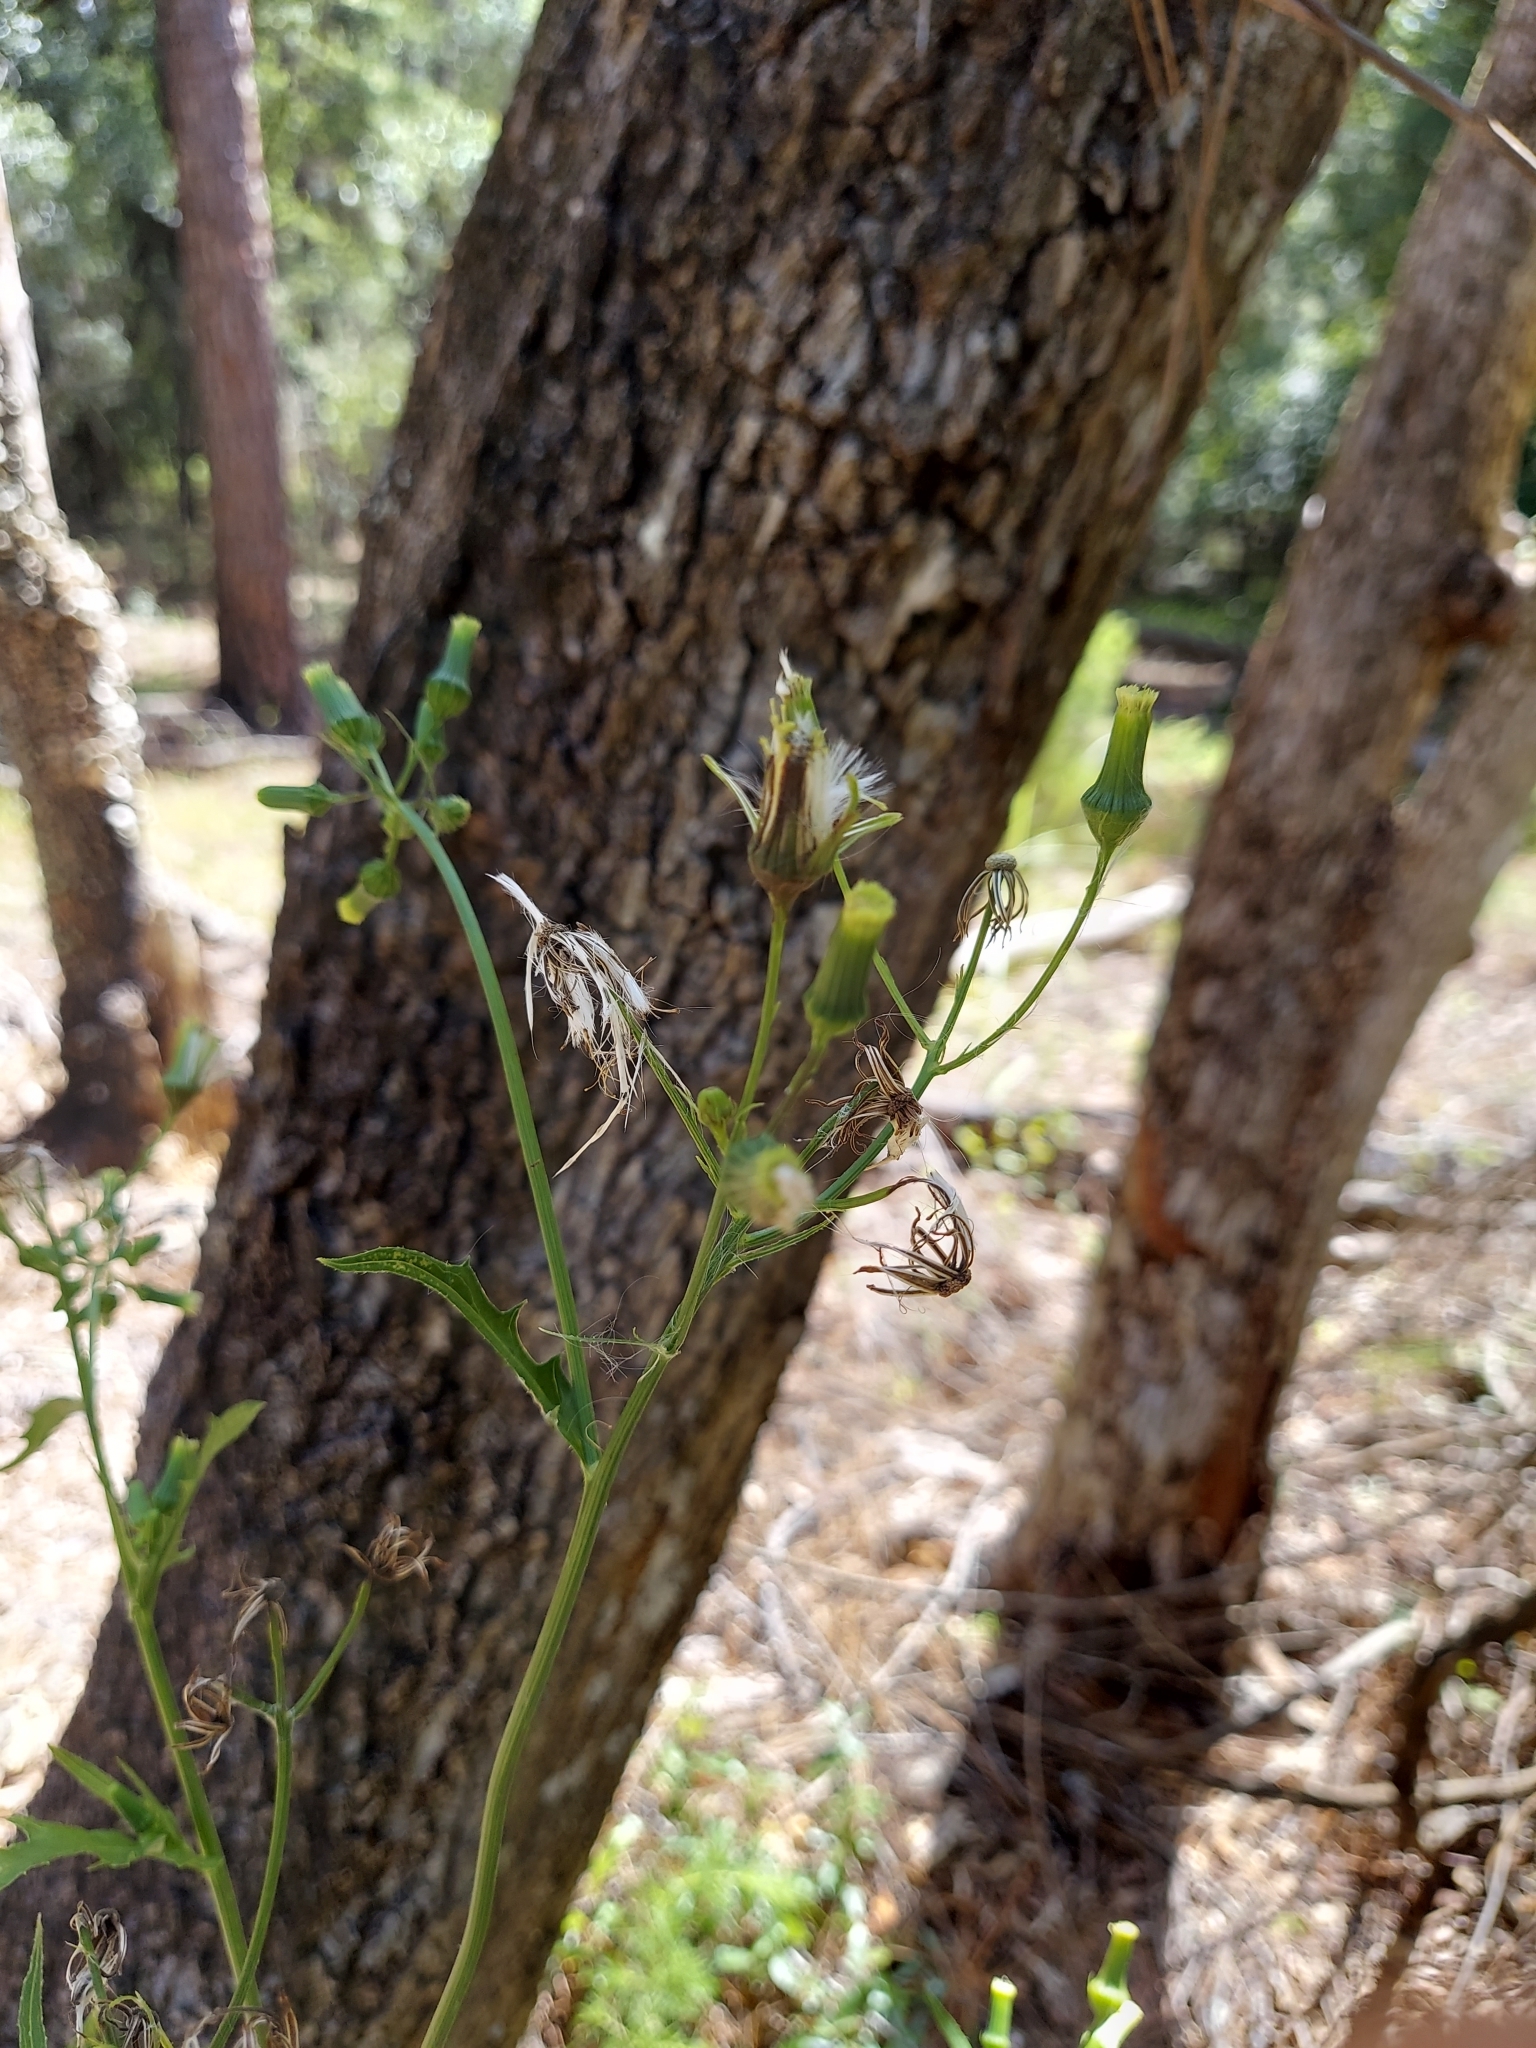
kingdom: Plantae
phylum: Tracheophyta
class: Magnoliopsida
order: Asterales
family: Asteraceae
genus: Erechtites
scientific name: Erechtites hieraciifolius
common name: American burnweed
